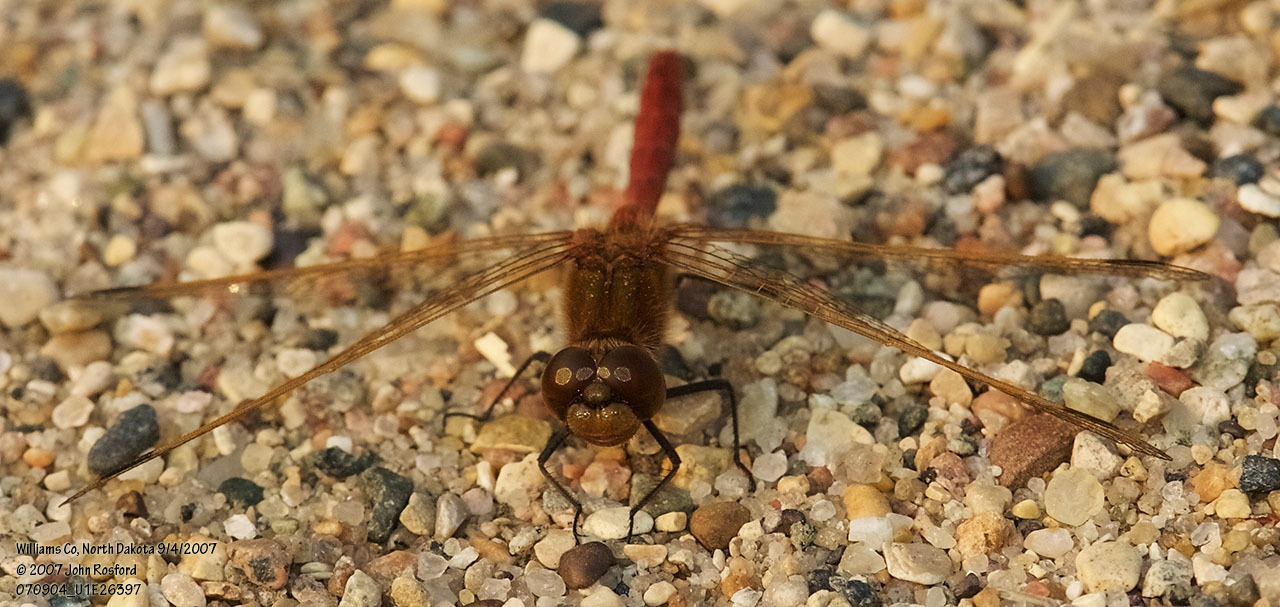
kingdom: Animalia
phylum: Arthropoda
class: Insecta
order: Odonata
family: Libellulidae
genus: Sympetrum
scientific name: Sympetrum costiferum
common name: Saffron-winged meadowhawk
